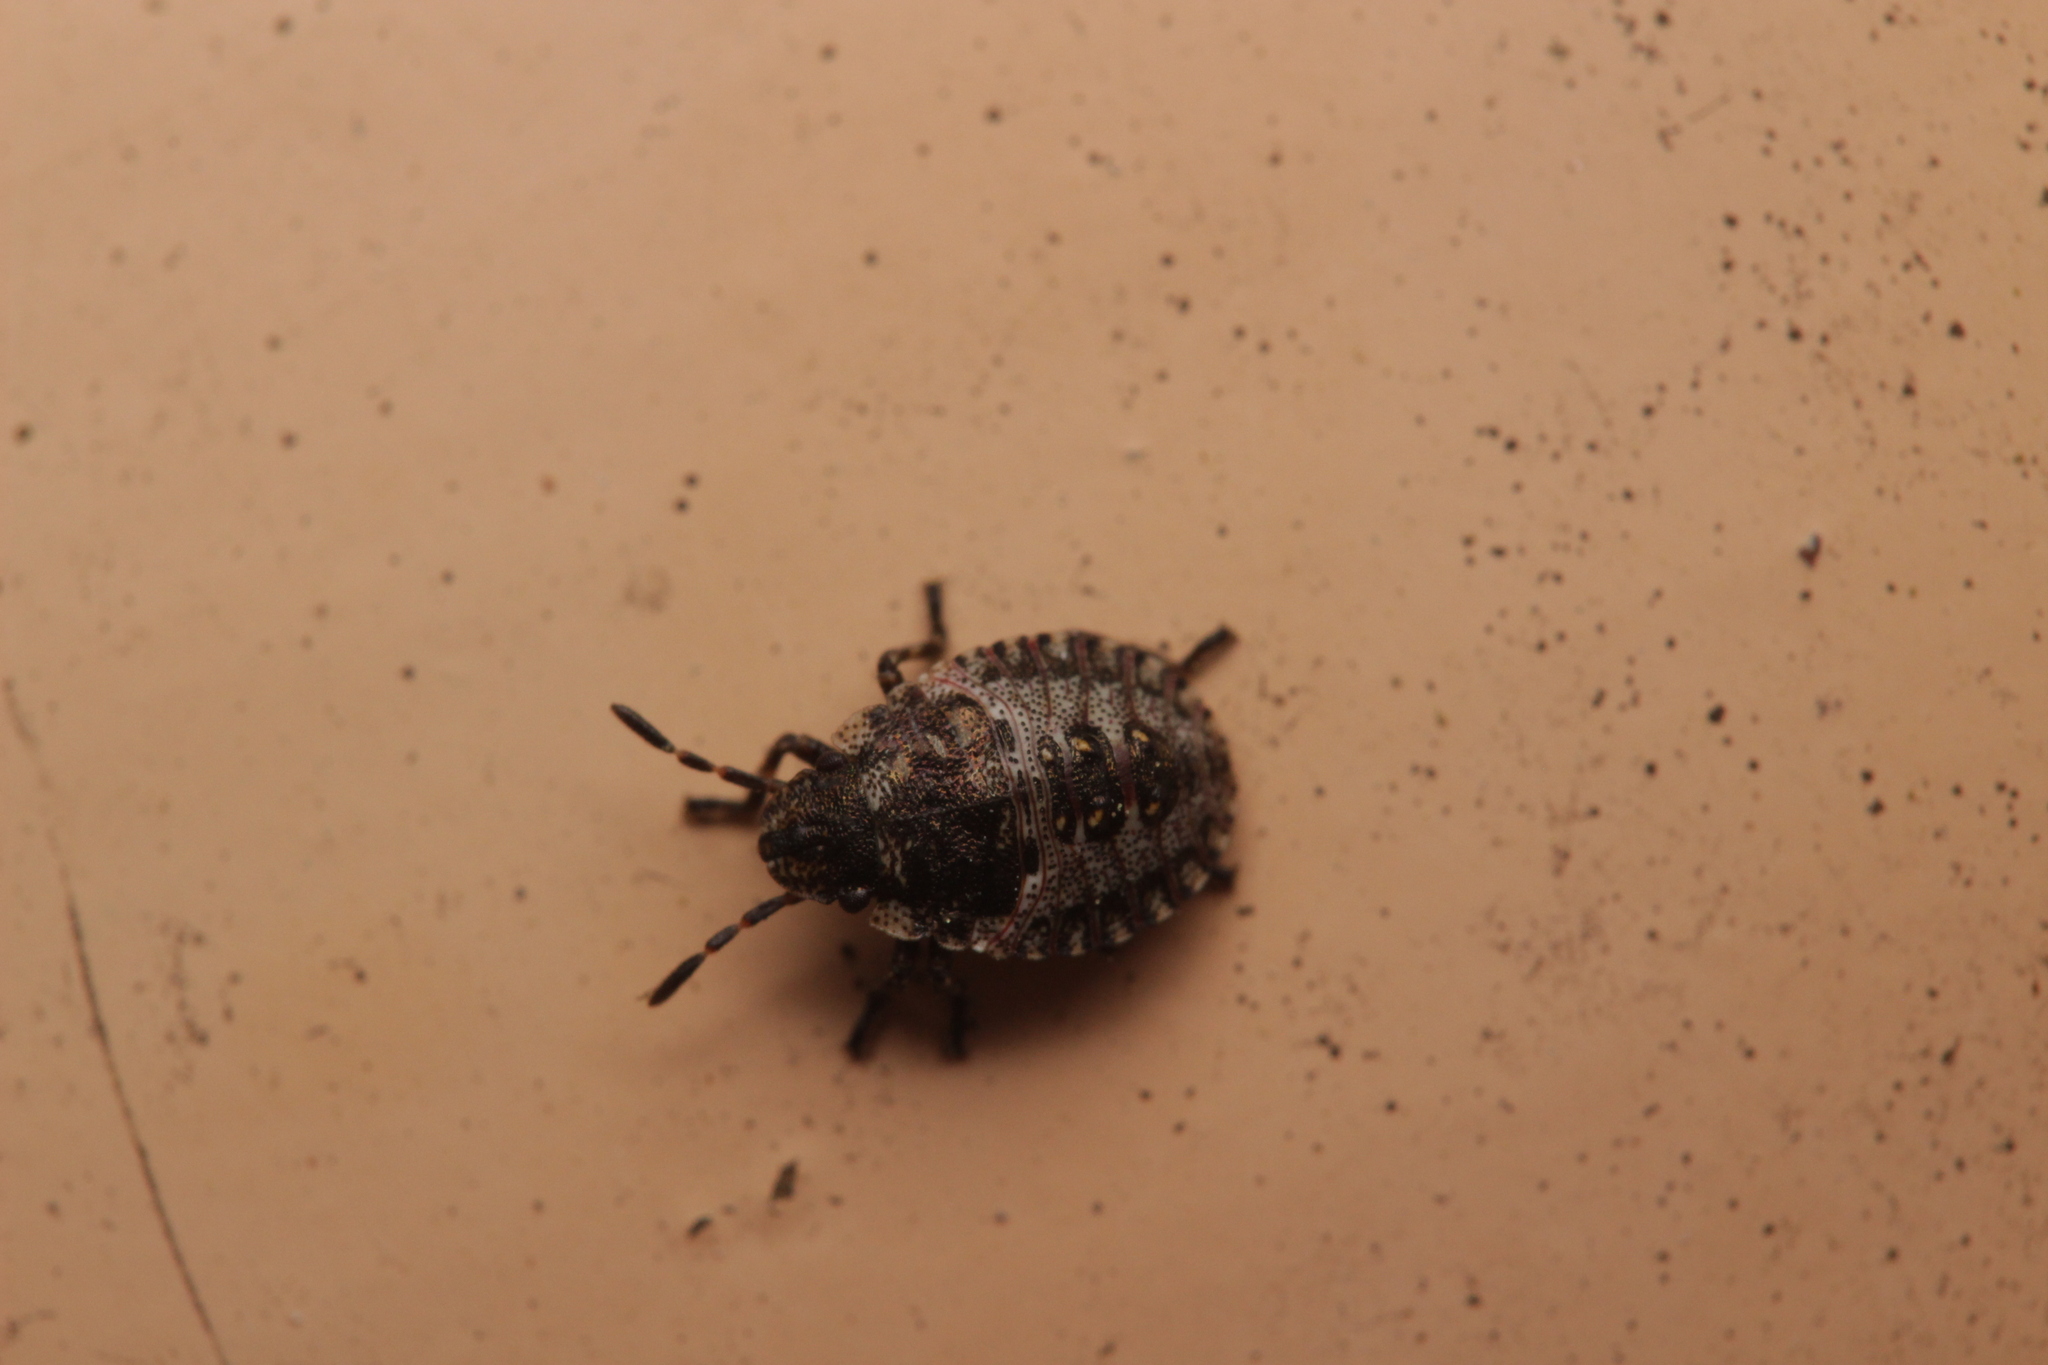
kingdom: Animalia
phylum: Arthropoda
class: Insecta
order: Hemiptera
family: Pentatomidae
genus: Pentatoma
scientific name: Pentatoma rufipes
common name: Forest bug
